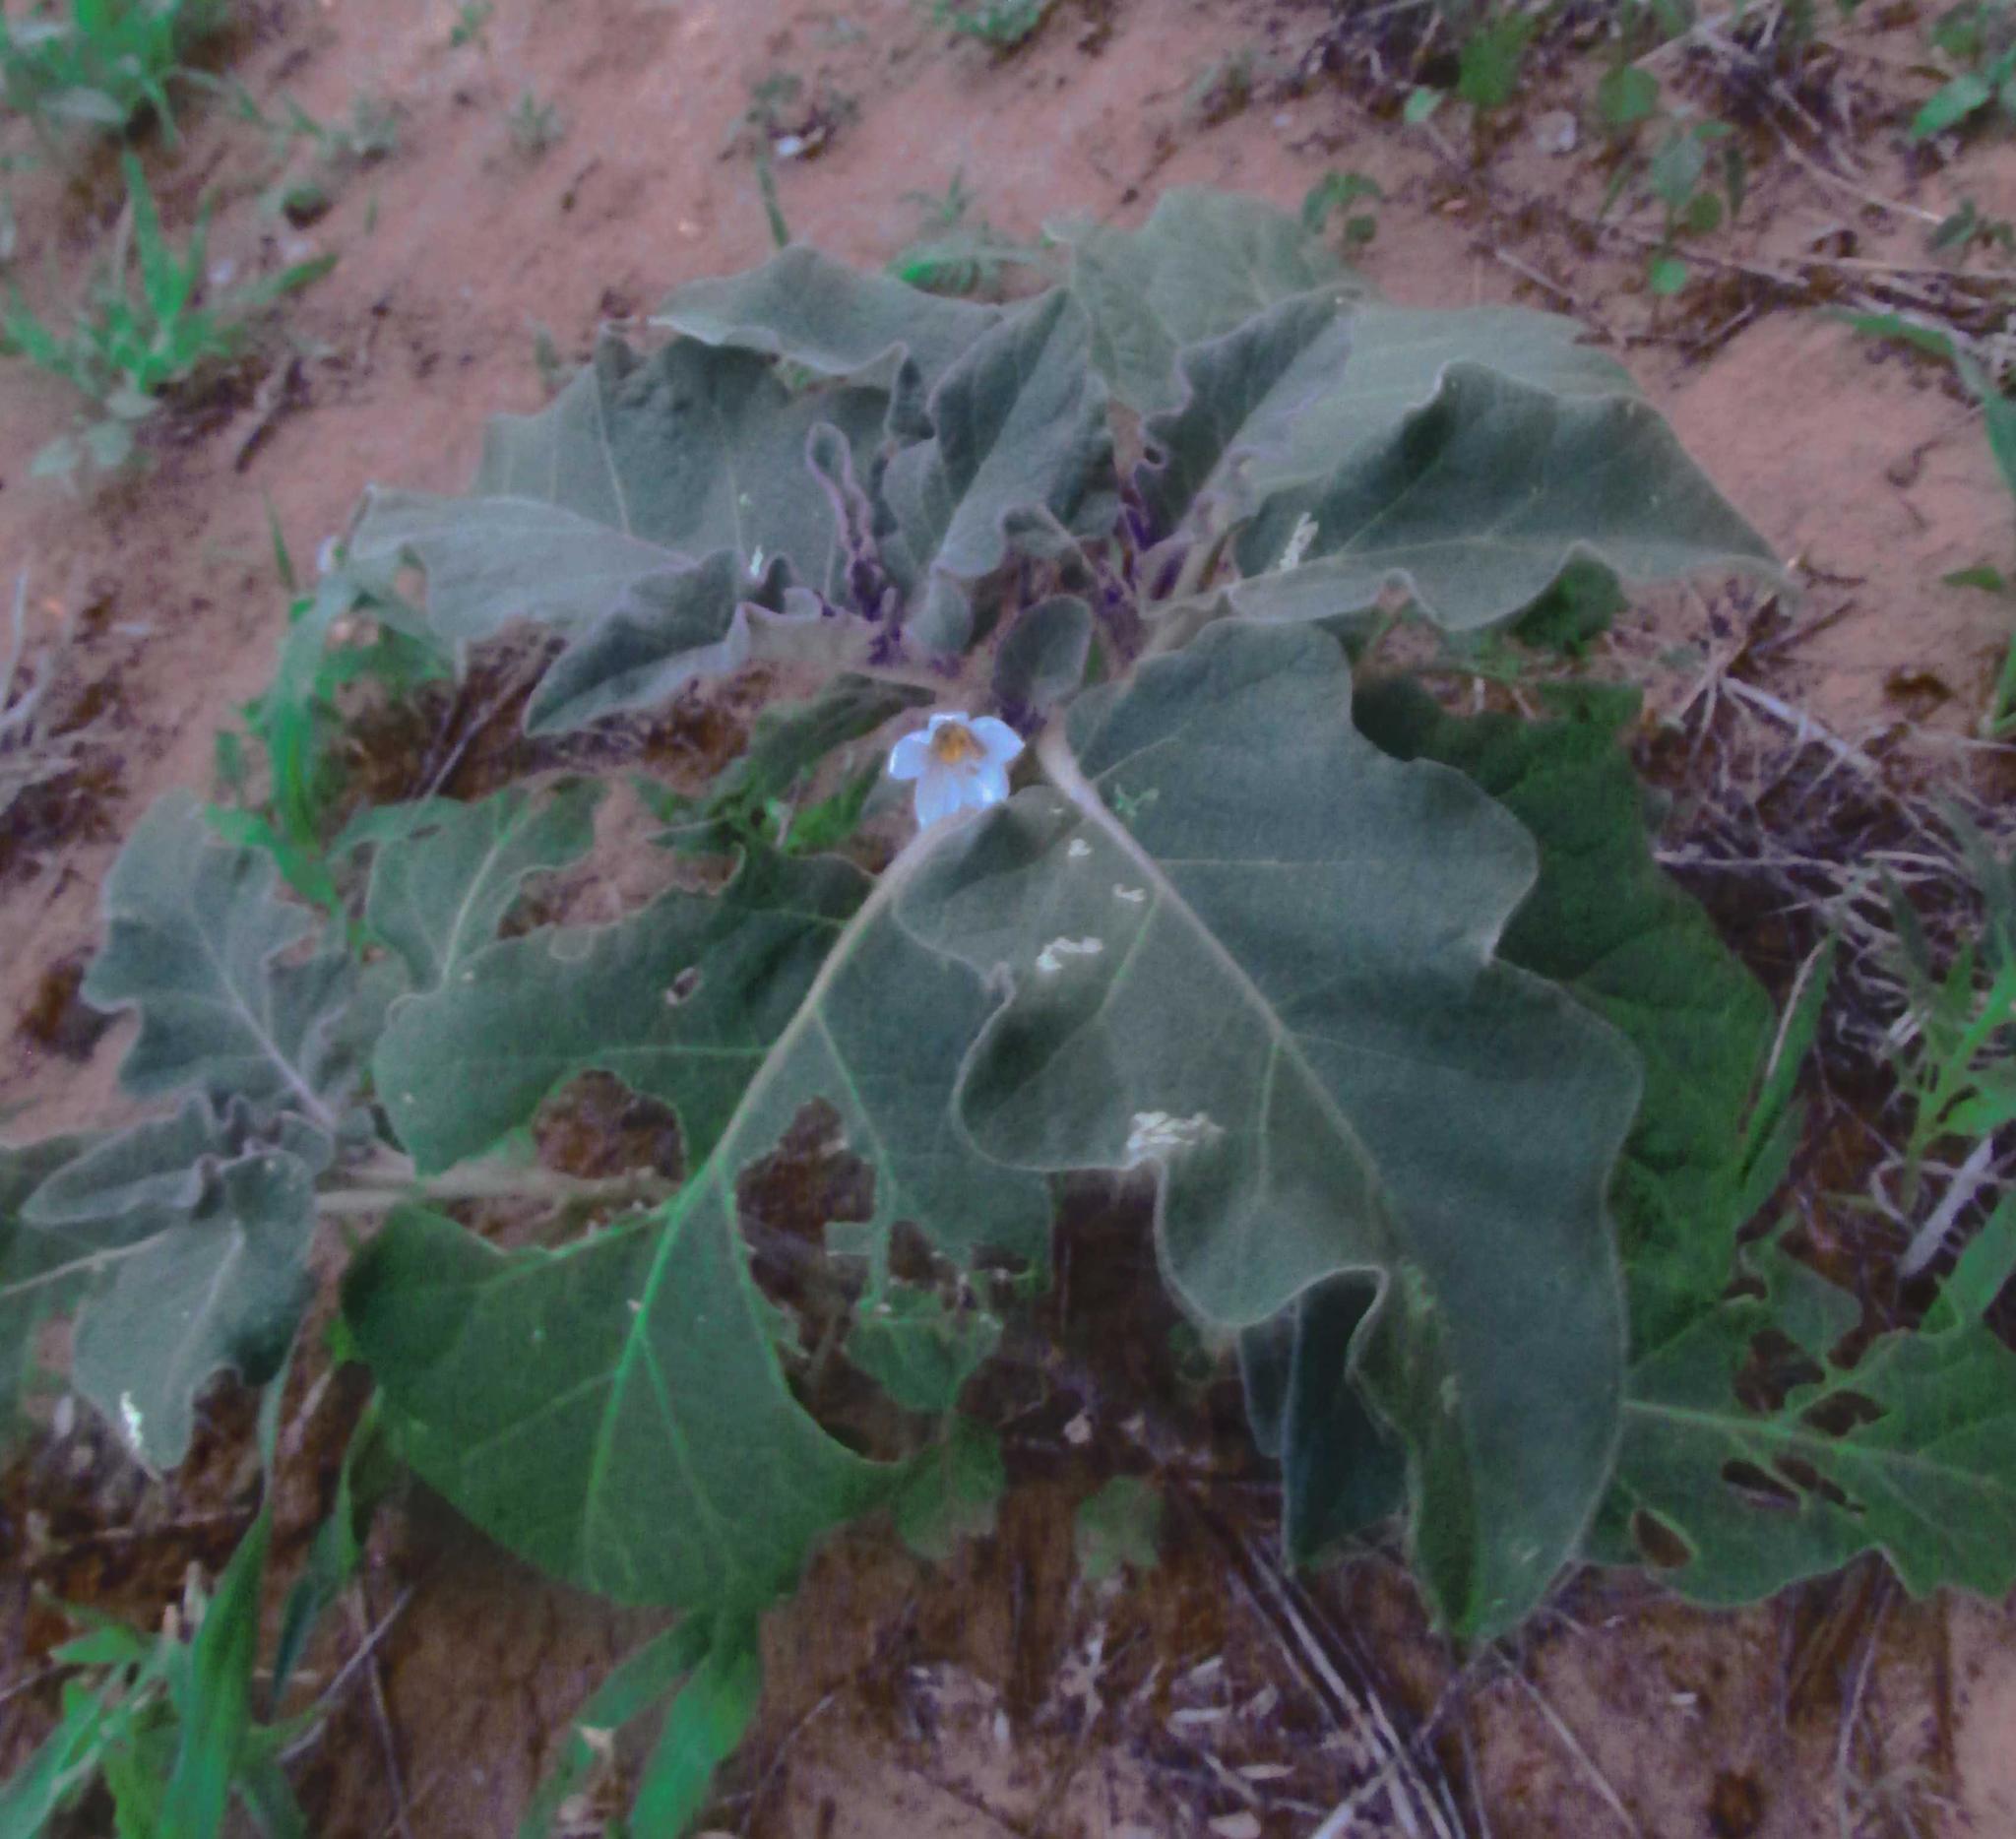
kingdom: Plantae
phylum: Tracheophyta
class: Magnoliopsida
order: Solanales
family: Solanaceae
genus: Solanum
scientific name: Solanum lichtensteinii
